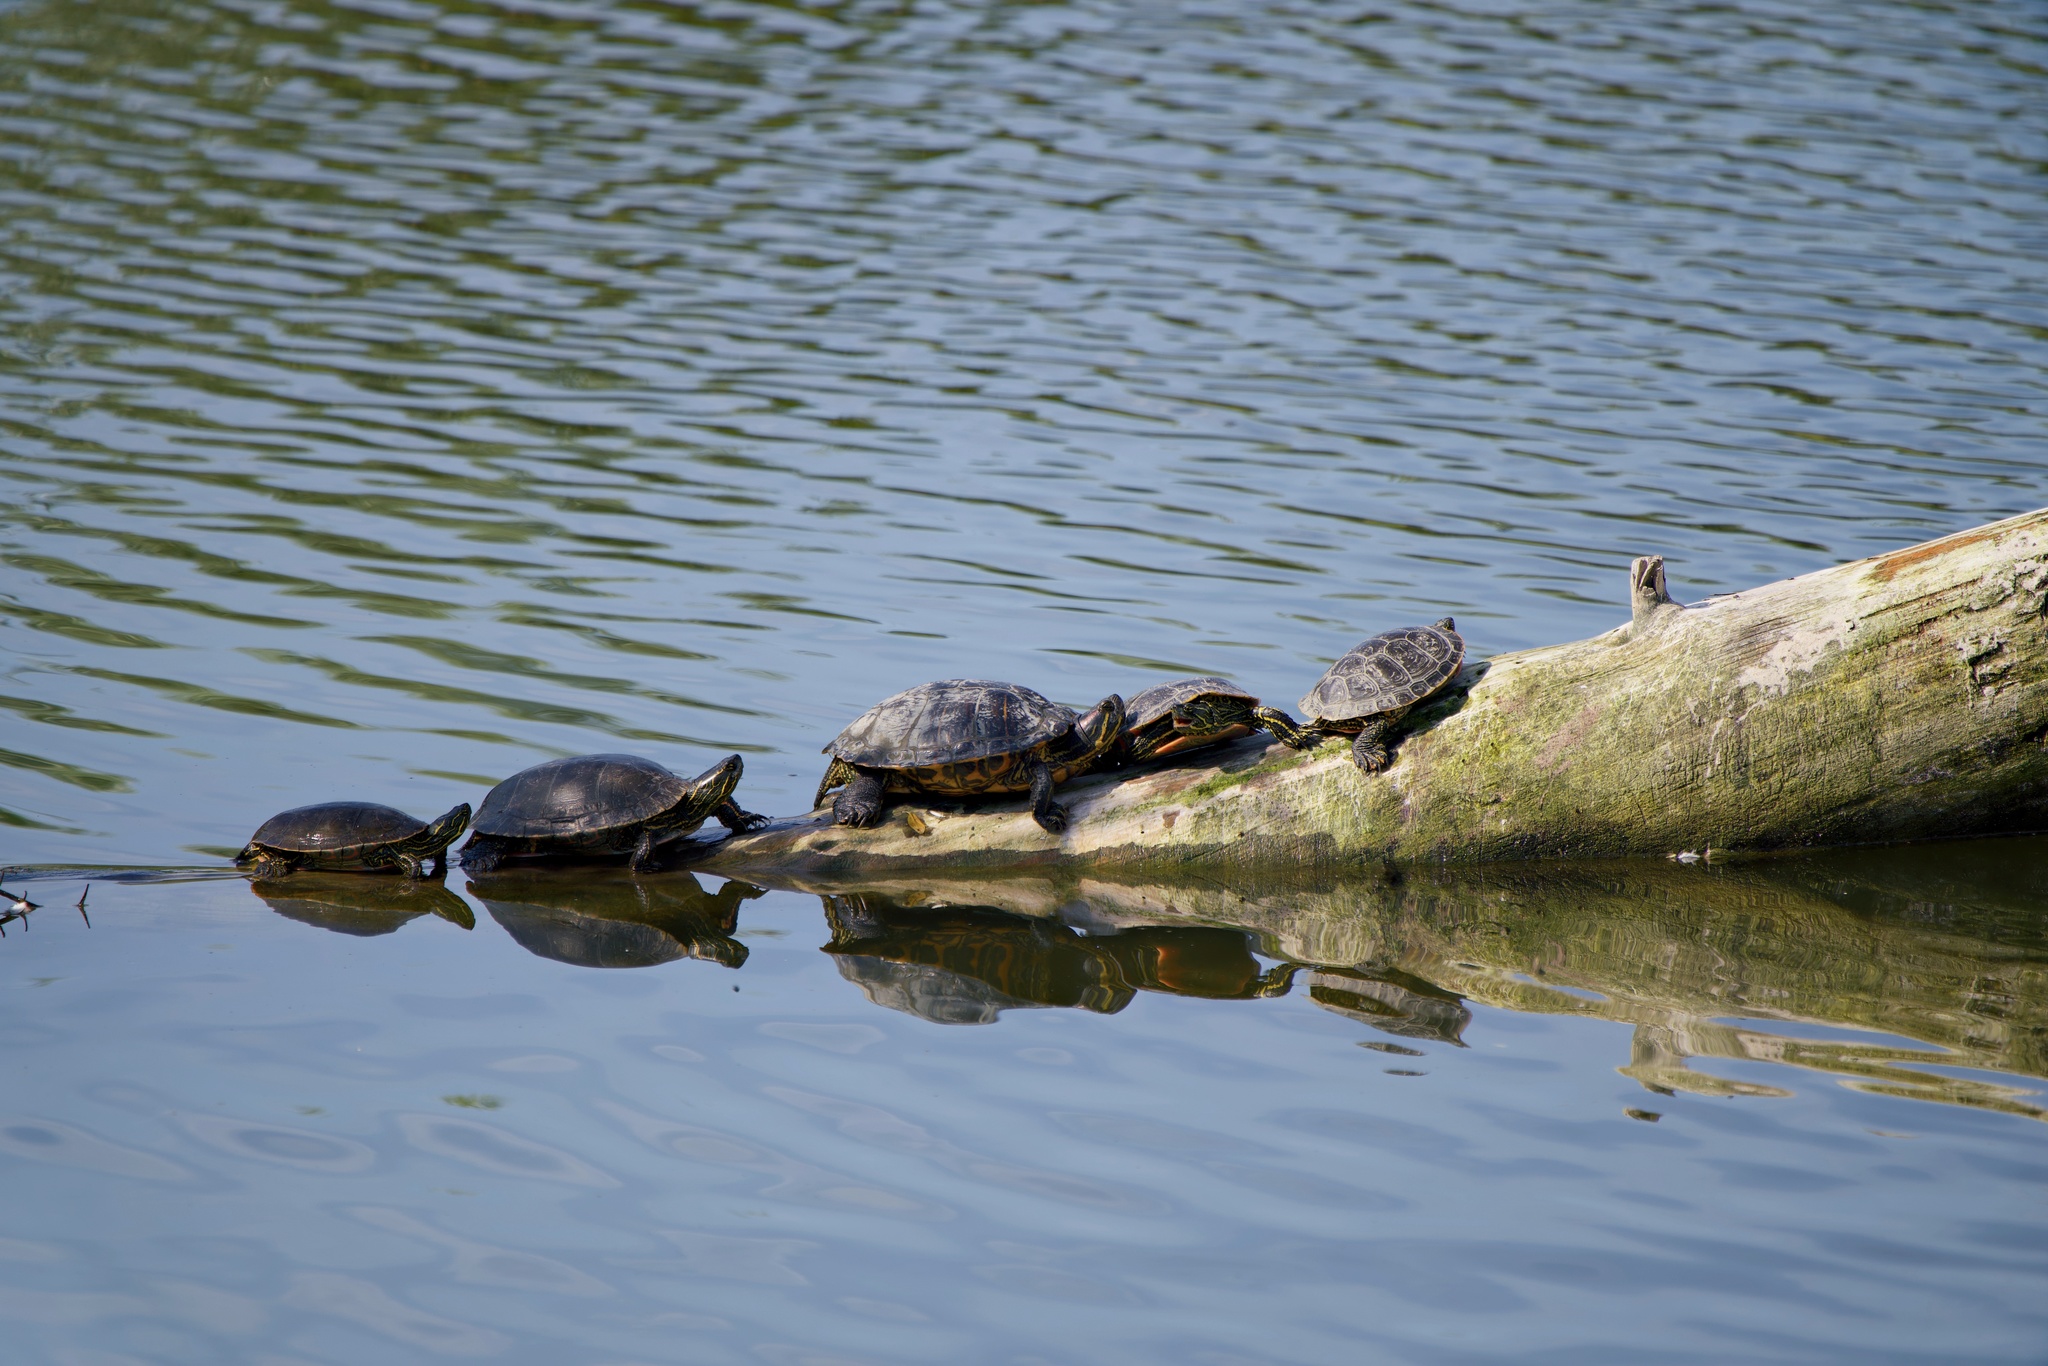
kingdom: Animalia
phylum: Chordata
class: Testudines
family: Emydidae
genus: Chrysemys
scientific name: Chrysemys picta
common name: Painted turtle
